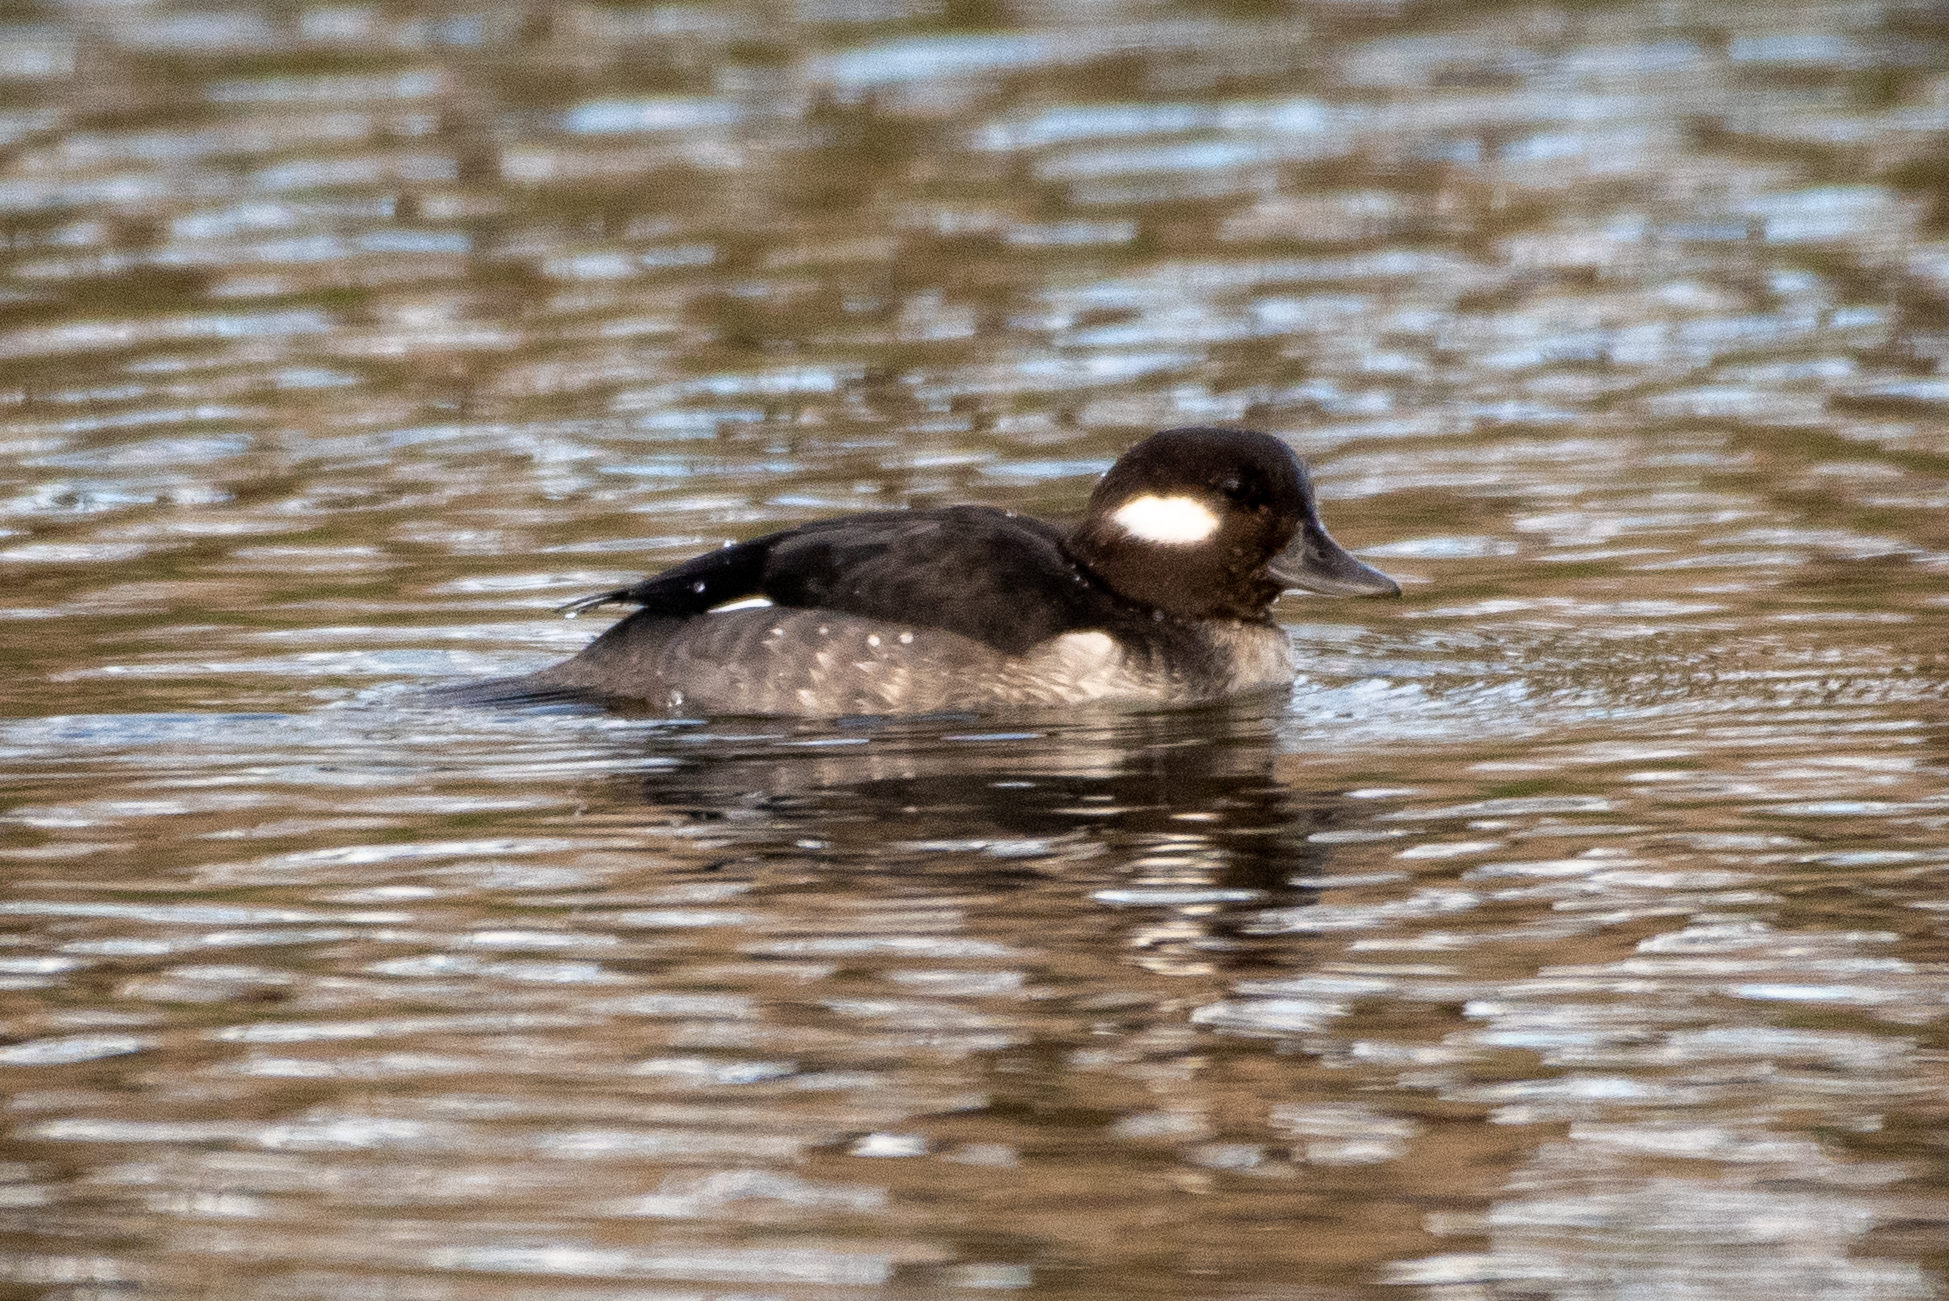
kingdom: Animalia
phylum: Chordata
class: Aves
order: Anseriformes
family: Anatidae
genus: Bucephala
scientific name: Bucephala albeola
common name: Bufflehead
